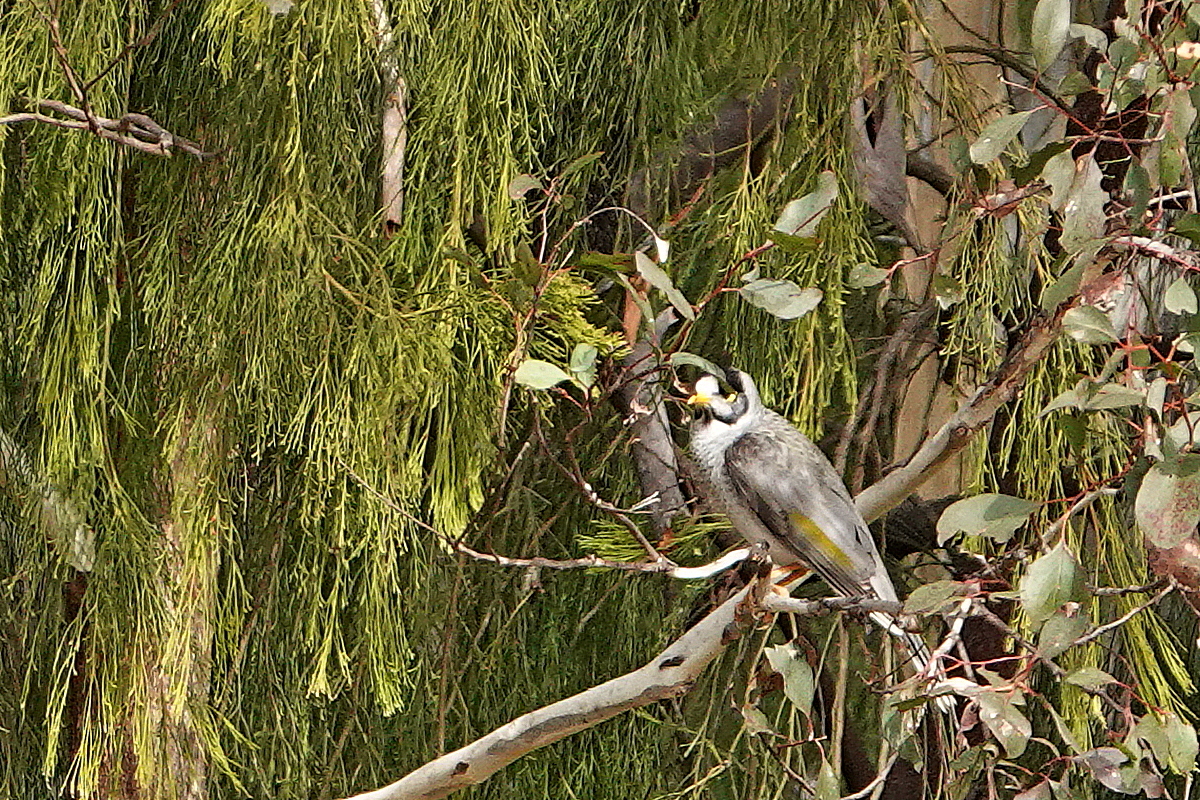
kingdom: Animalia
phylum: Chordata
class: Aves
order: Passeriformes
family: Meliphagidae
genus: Manorina
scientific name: Manorina melanocephala
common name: Noisy miner
